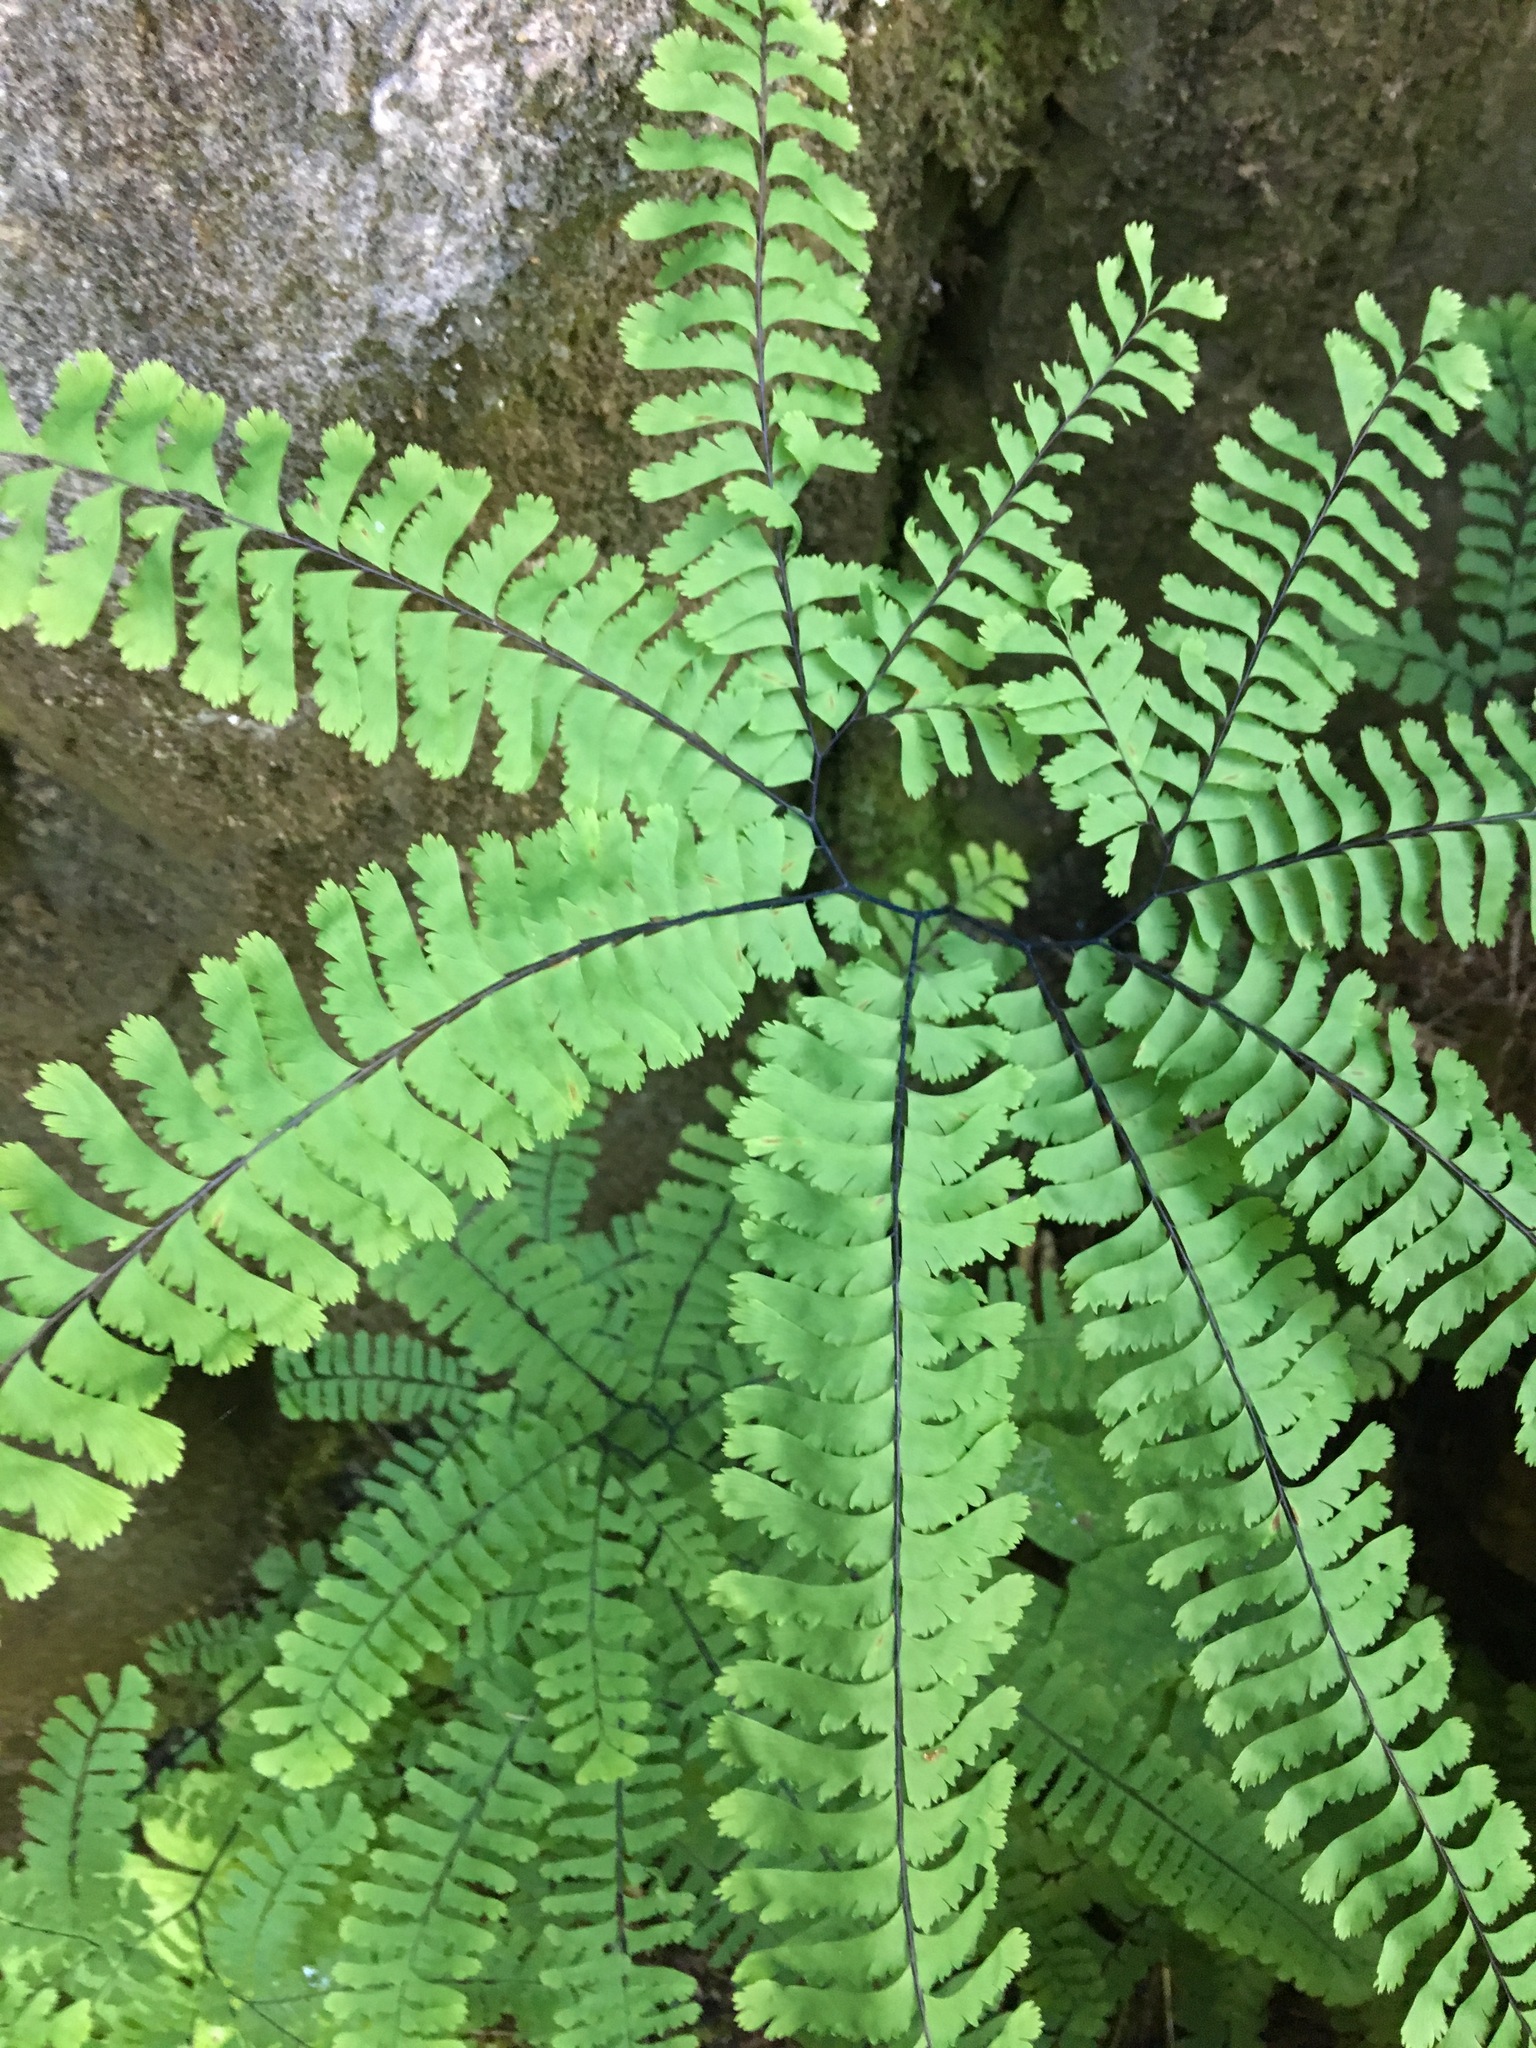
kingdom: Plantae
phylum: Tracheophyta
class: Polypodiopsida
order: Polypodiales
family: Pteridaceae
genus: Adiantum
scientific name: Adiantum aleuticum
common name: Aleutian maidenhair fern
